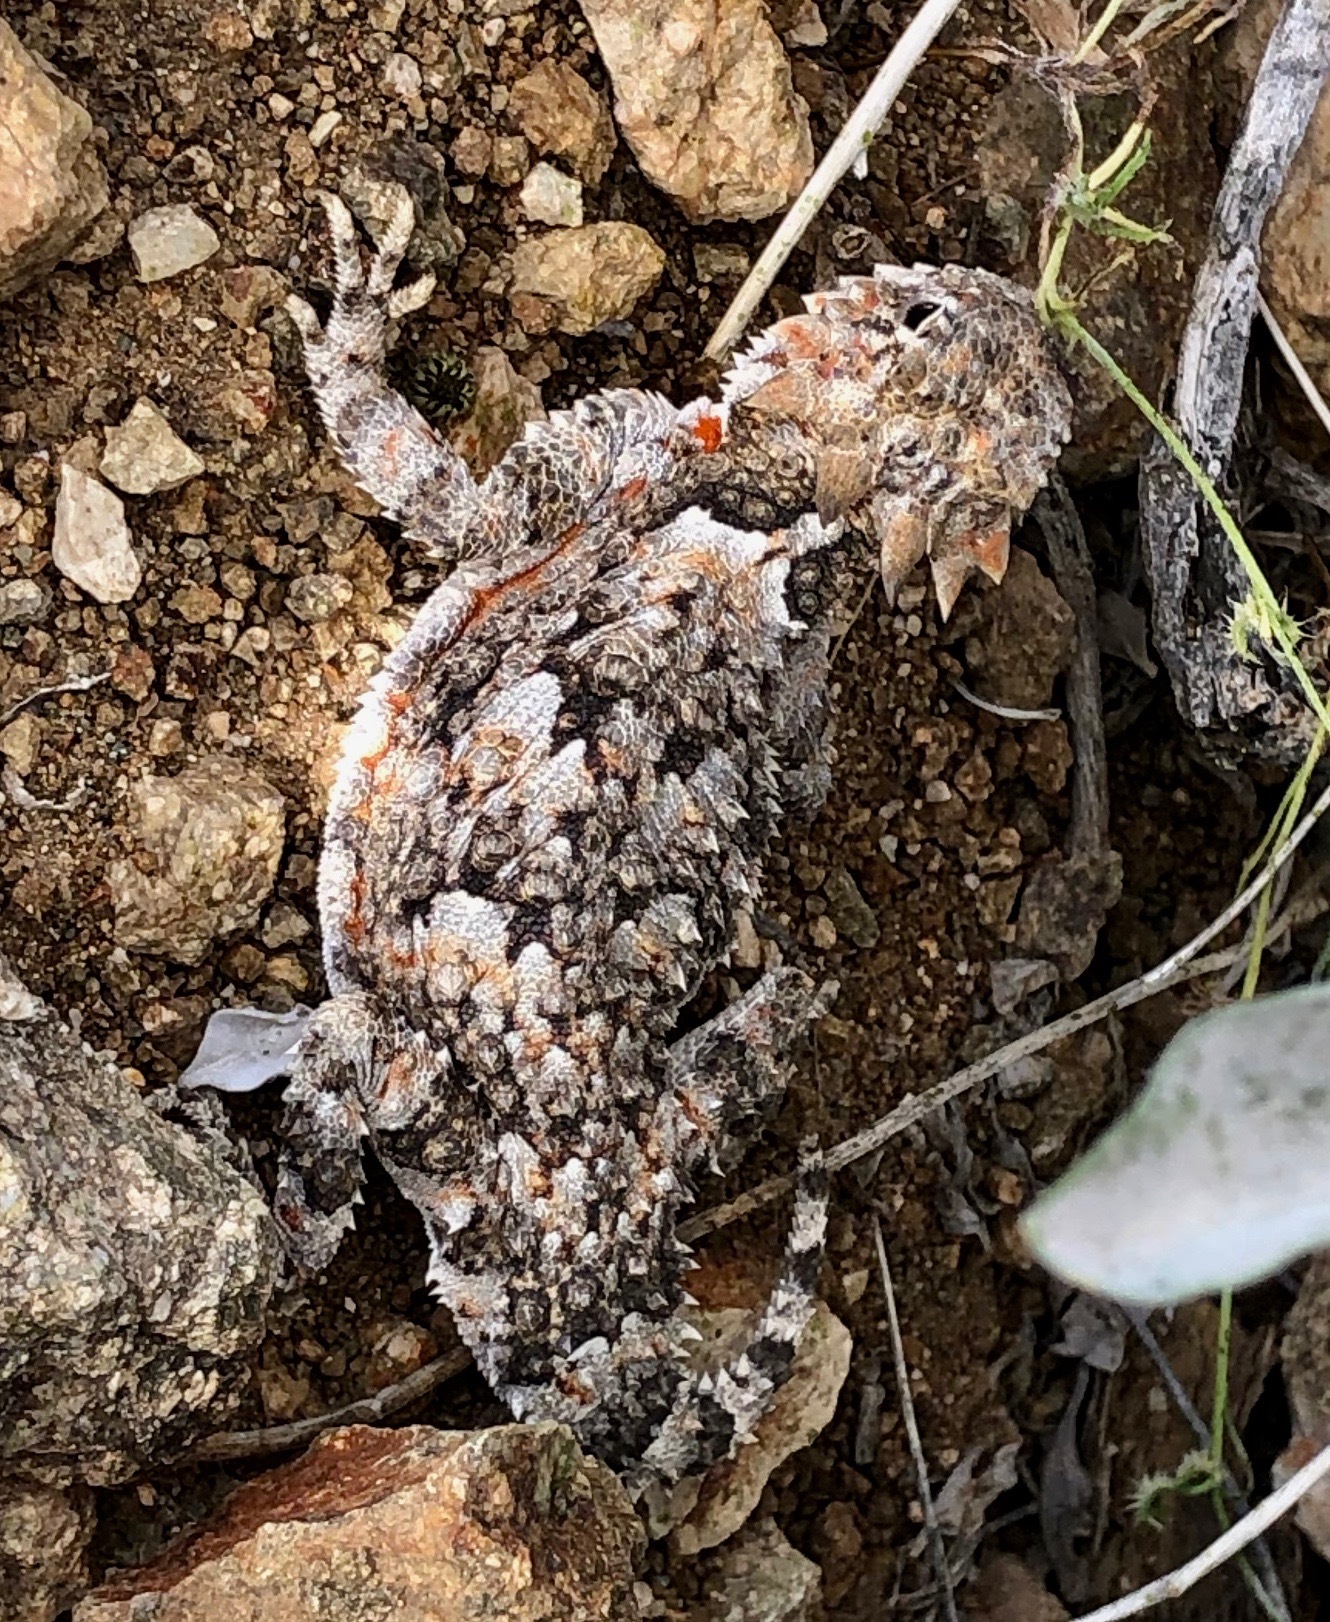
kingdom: Animalia
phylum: Chordata
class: Squamata
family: Phrynosomatidae
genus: Phrynosoma
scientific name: Phrynosoma platyrhinos
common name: Desert horned lizard
